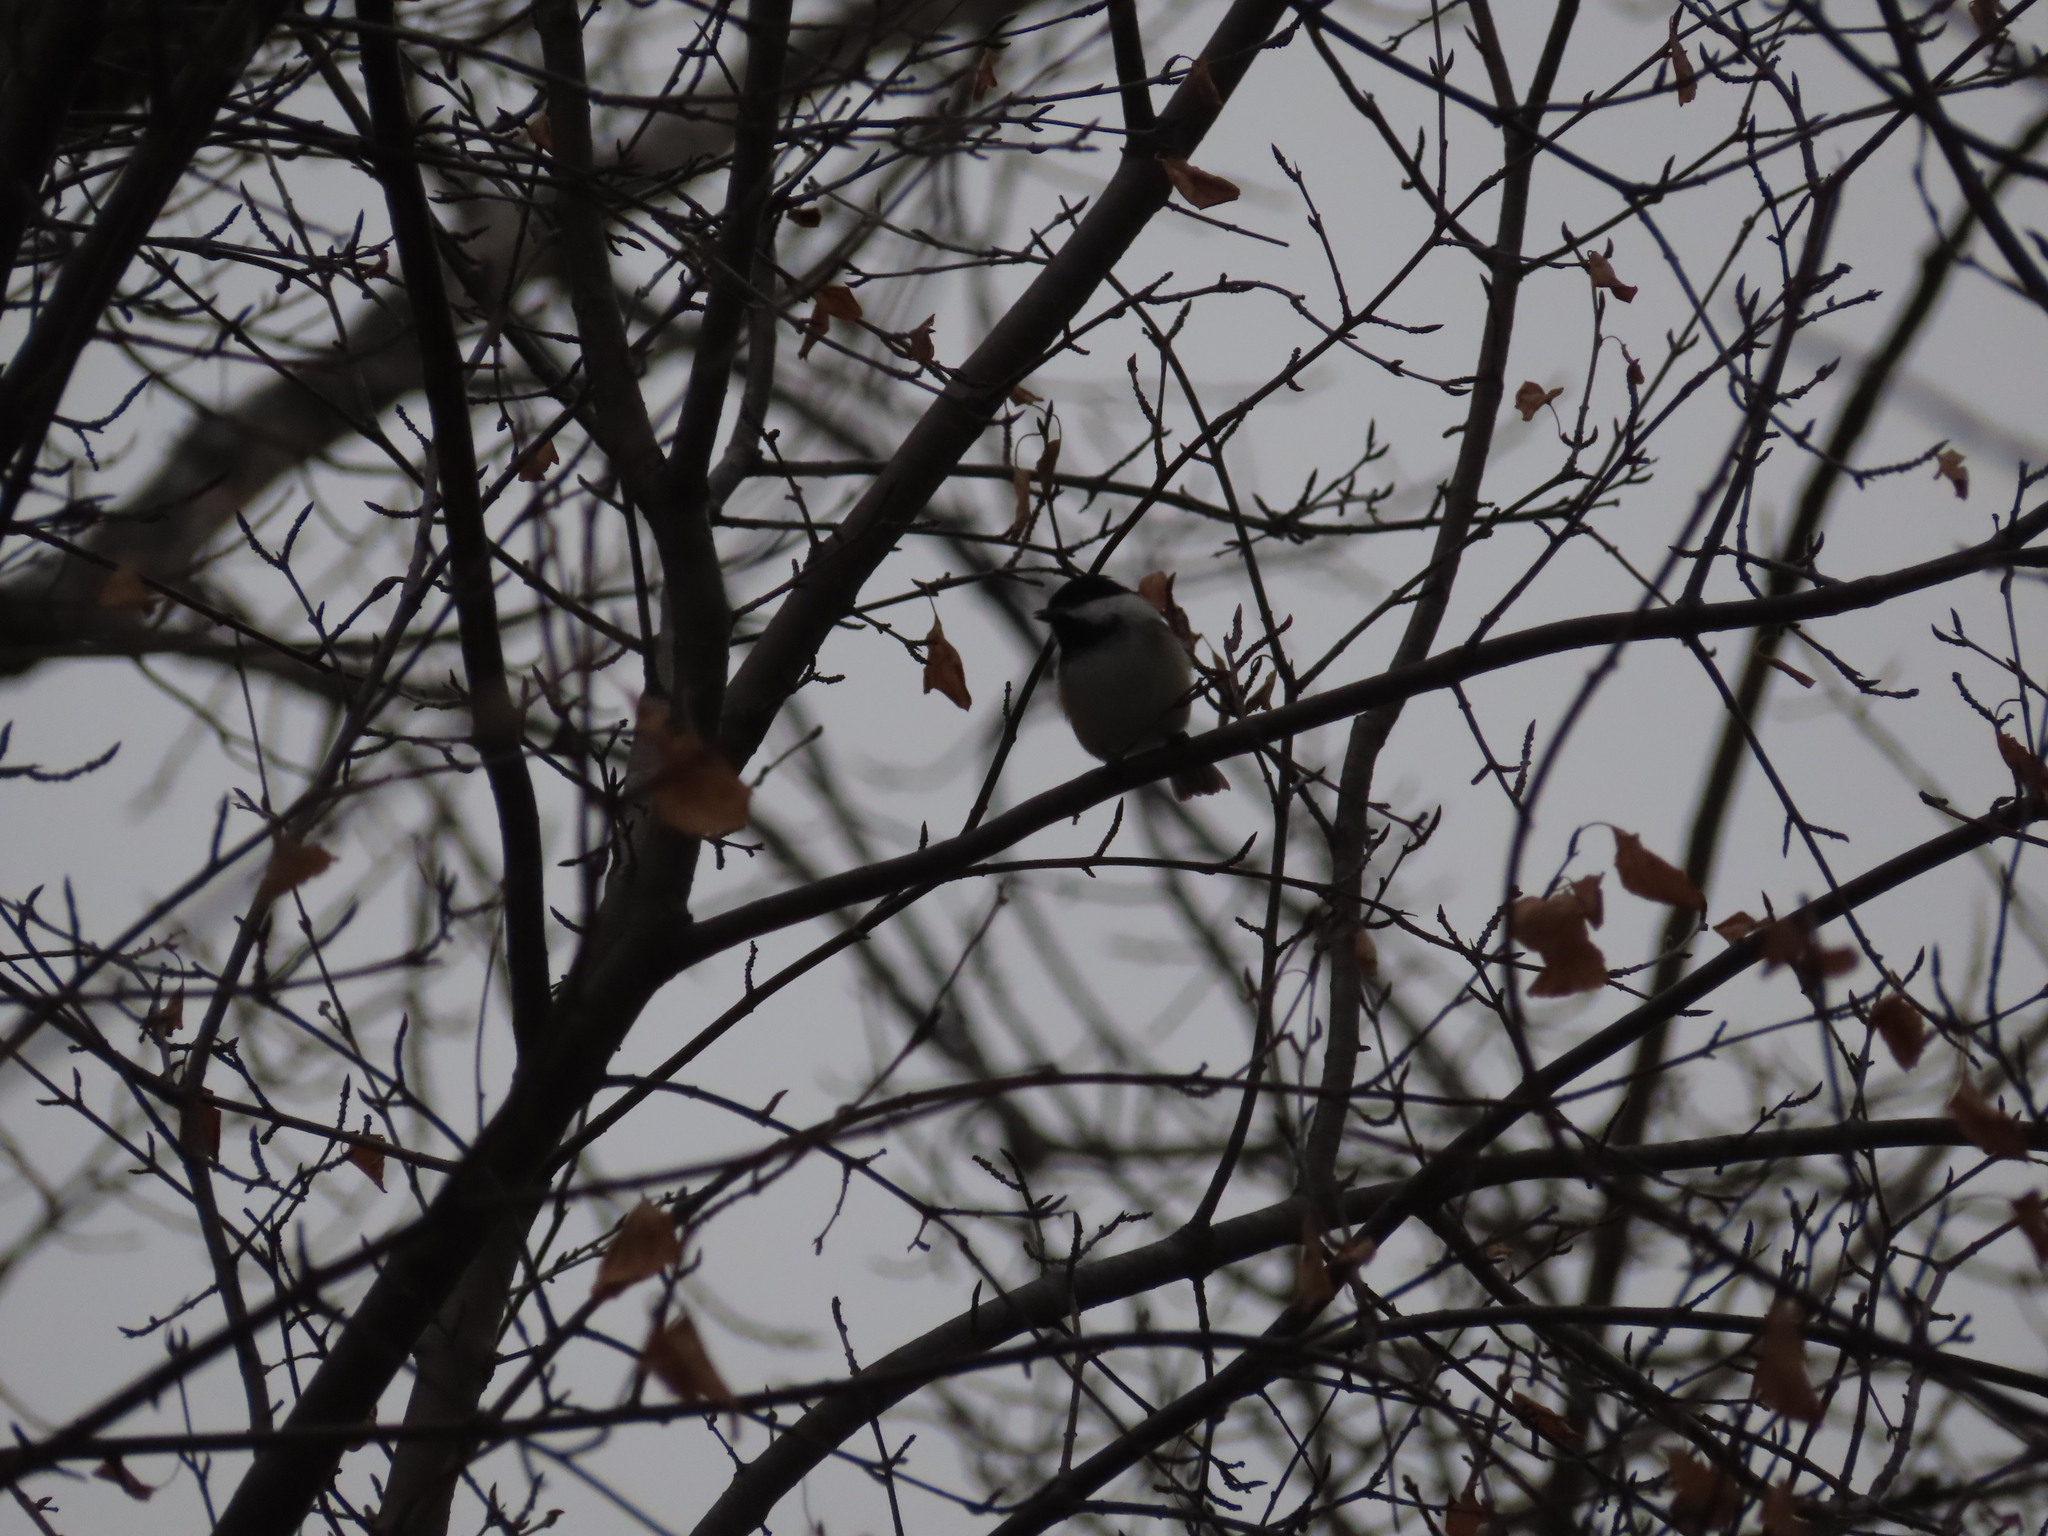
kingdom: Animalia
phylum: Chordata
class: Aves
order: Passeriformes
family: Paridae
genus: Poecile
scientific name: Poecile atricapillus
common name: Black-capped chickadee
